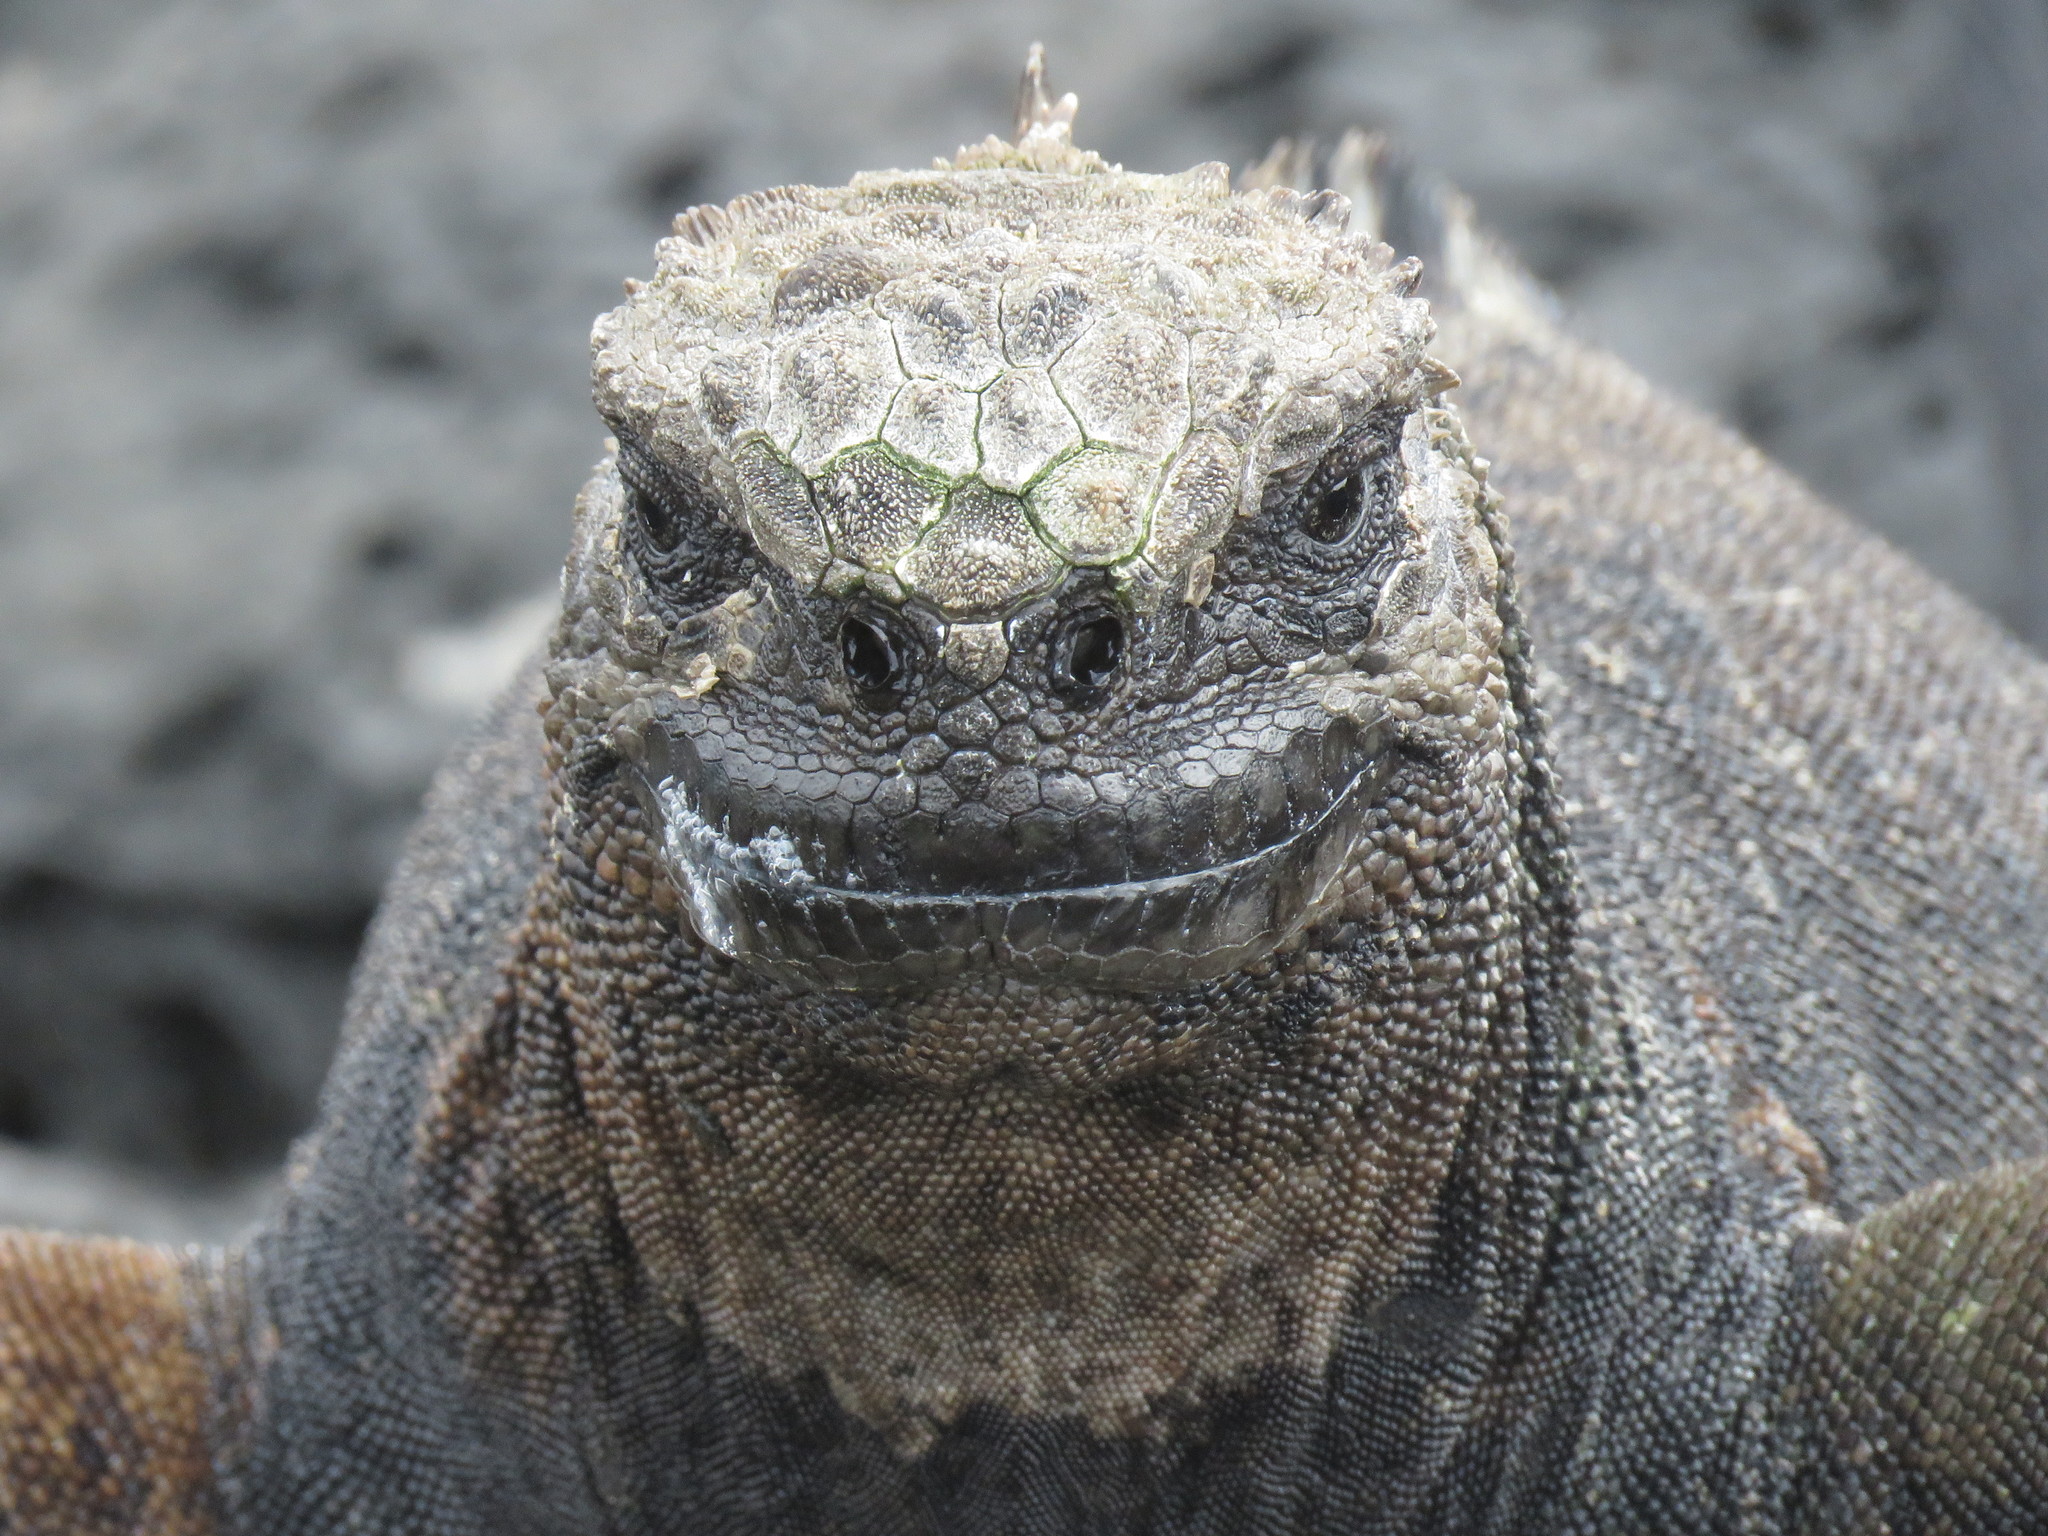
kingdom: Animalia
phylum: Chordata
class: Squamata
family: Iguanidae
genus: Amblyrhynchus
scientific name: Amblyrhynchus cristatus
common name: Marine iguana
